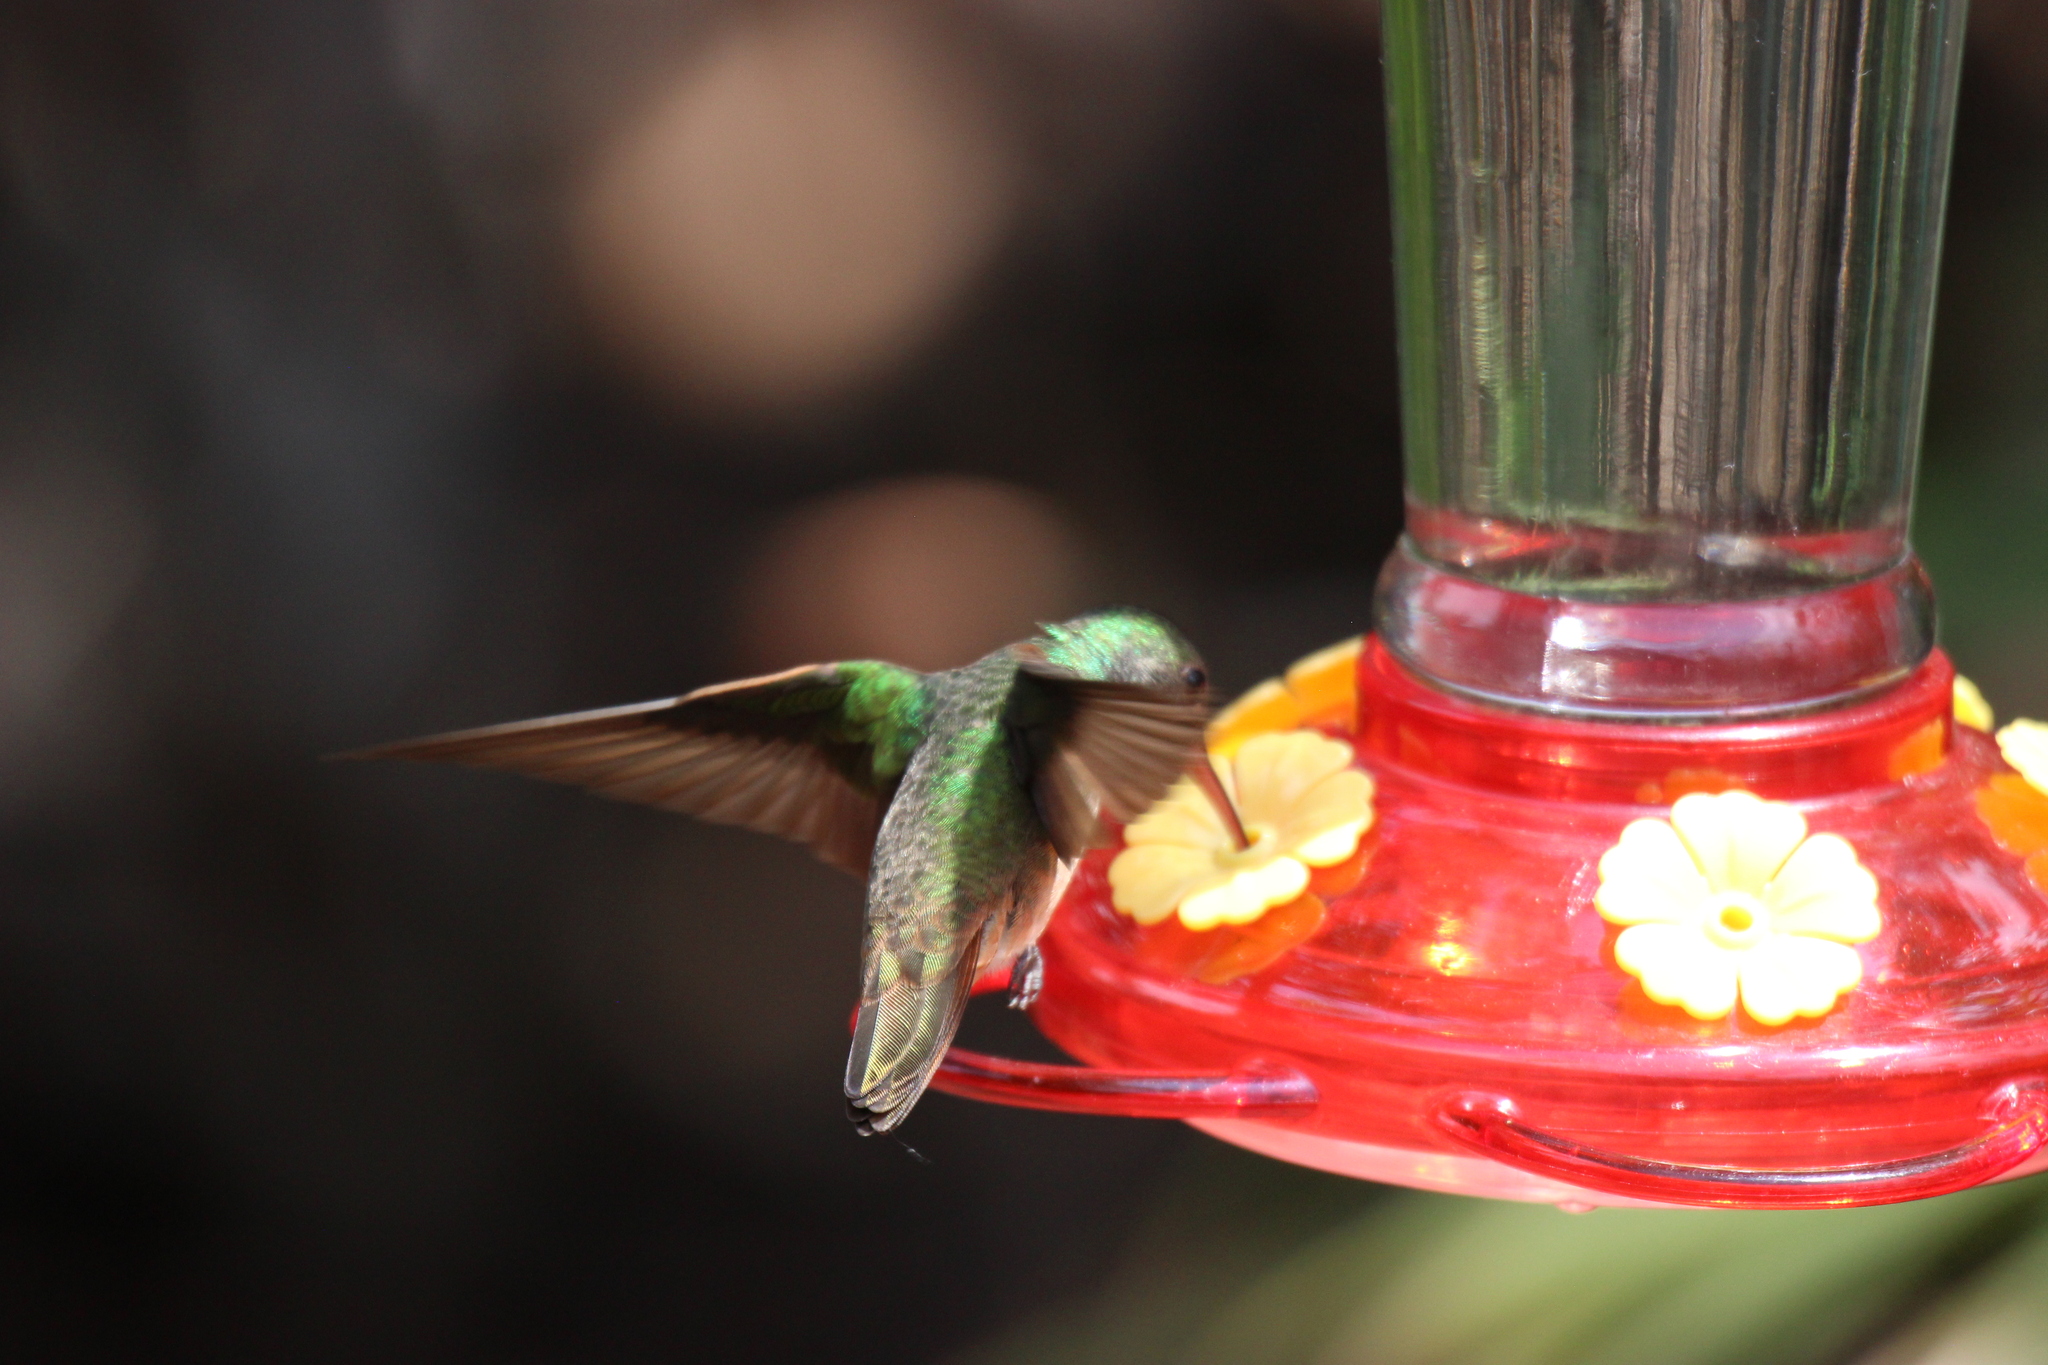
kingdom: Animalia
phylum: Chordata
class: Aves
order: Apodiformes
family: Trochilidae
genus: Amazilia
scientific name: Amazilia yucatanensis
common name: Buff-bellied hummingbird
